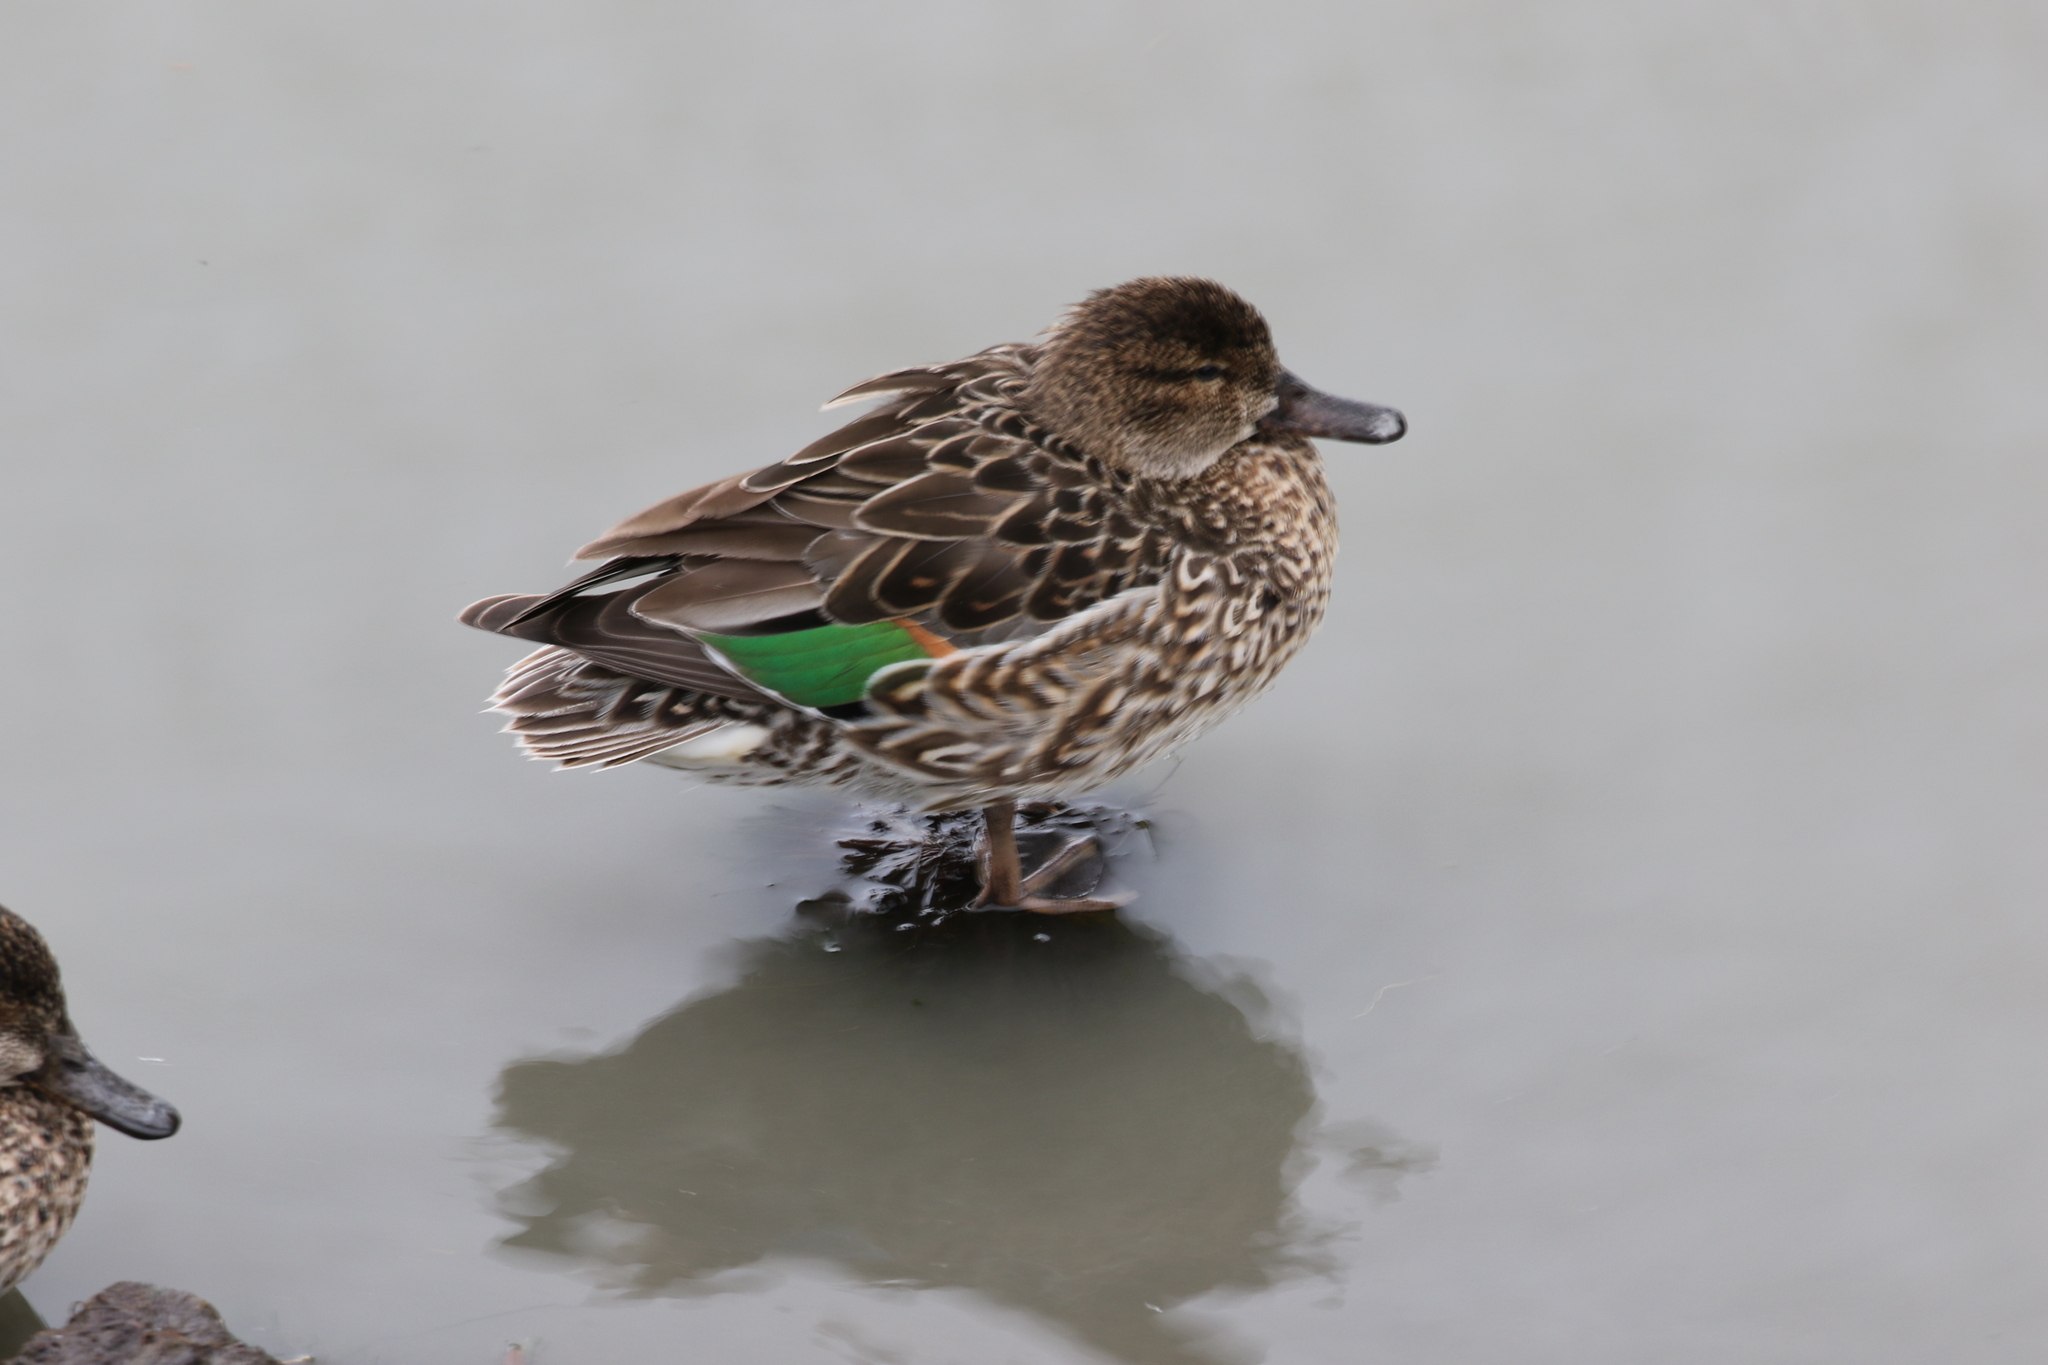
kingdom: Animalia
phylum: Chordata
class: Aves
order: Anseriformes
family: Anatidae
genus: Anas
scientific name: Anas crecca
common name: Eurasian teal
